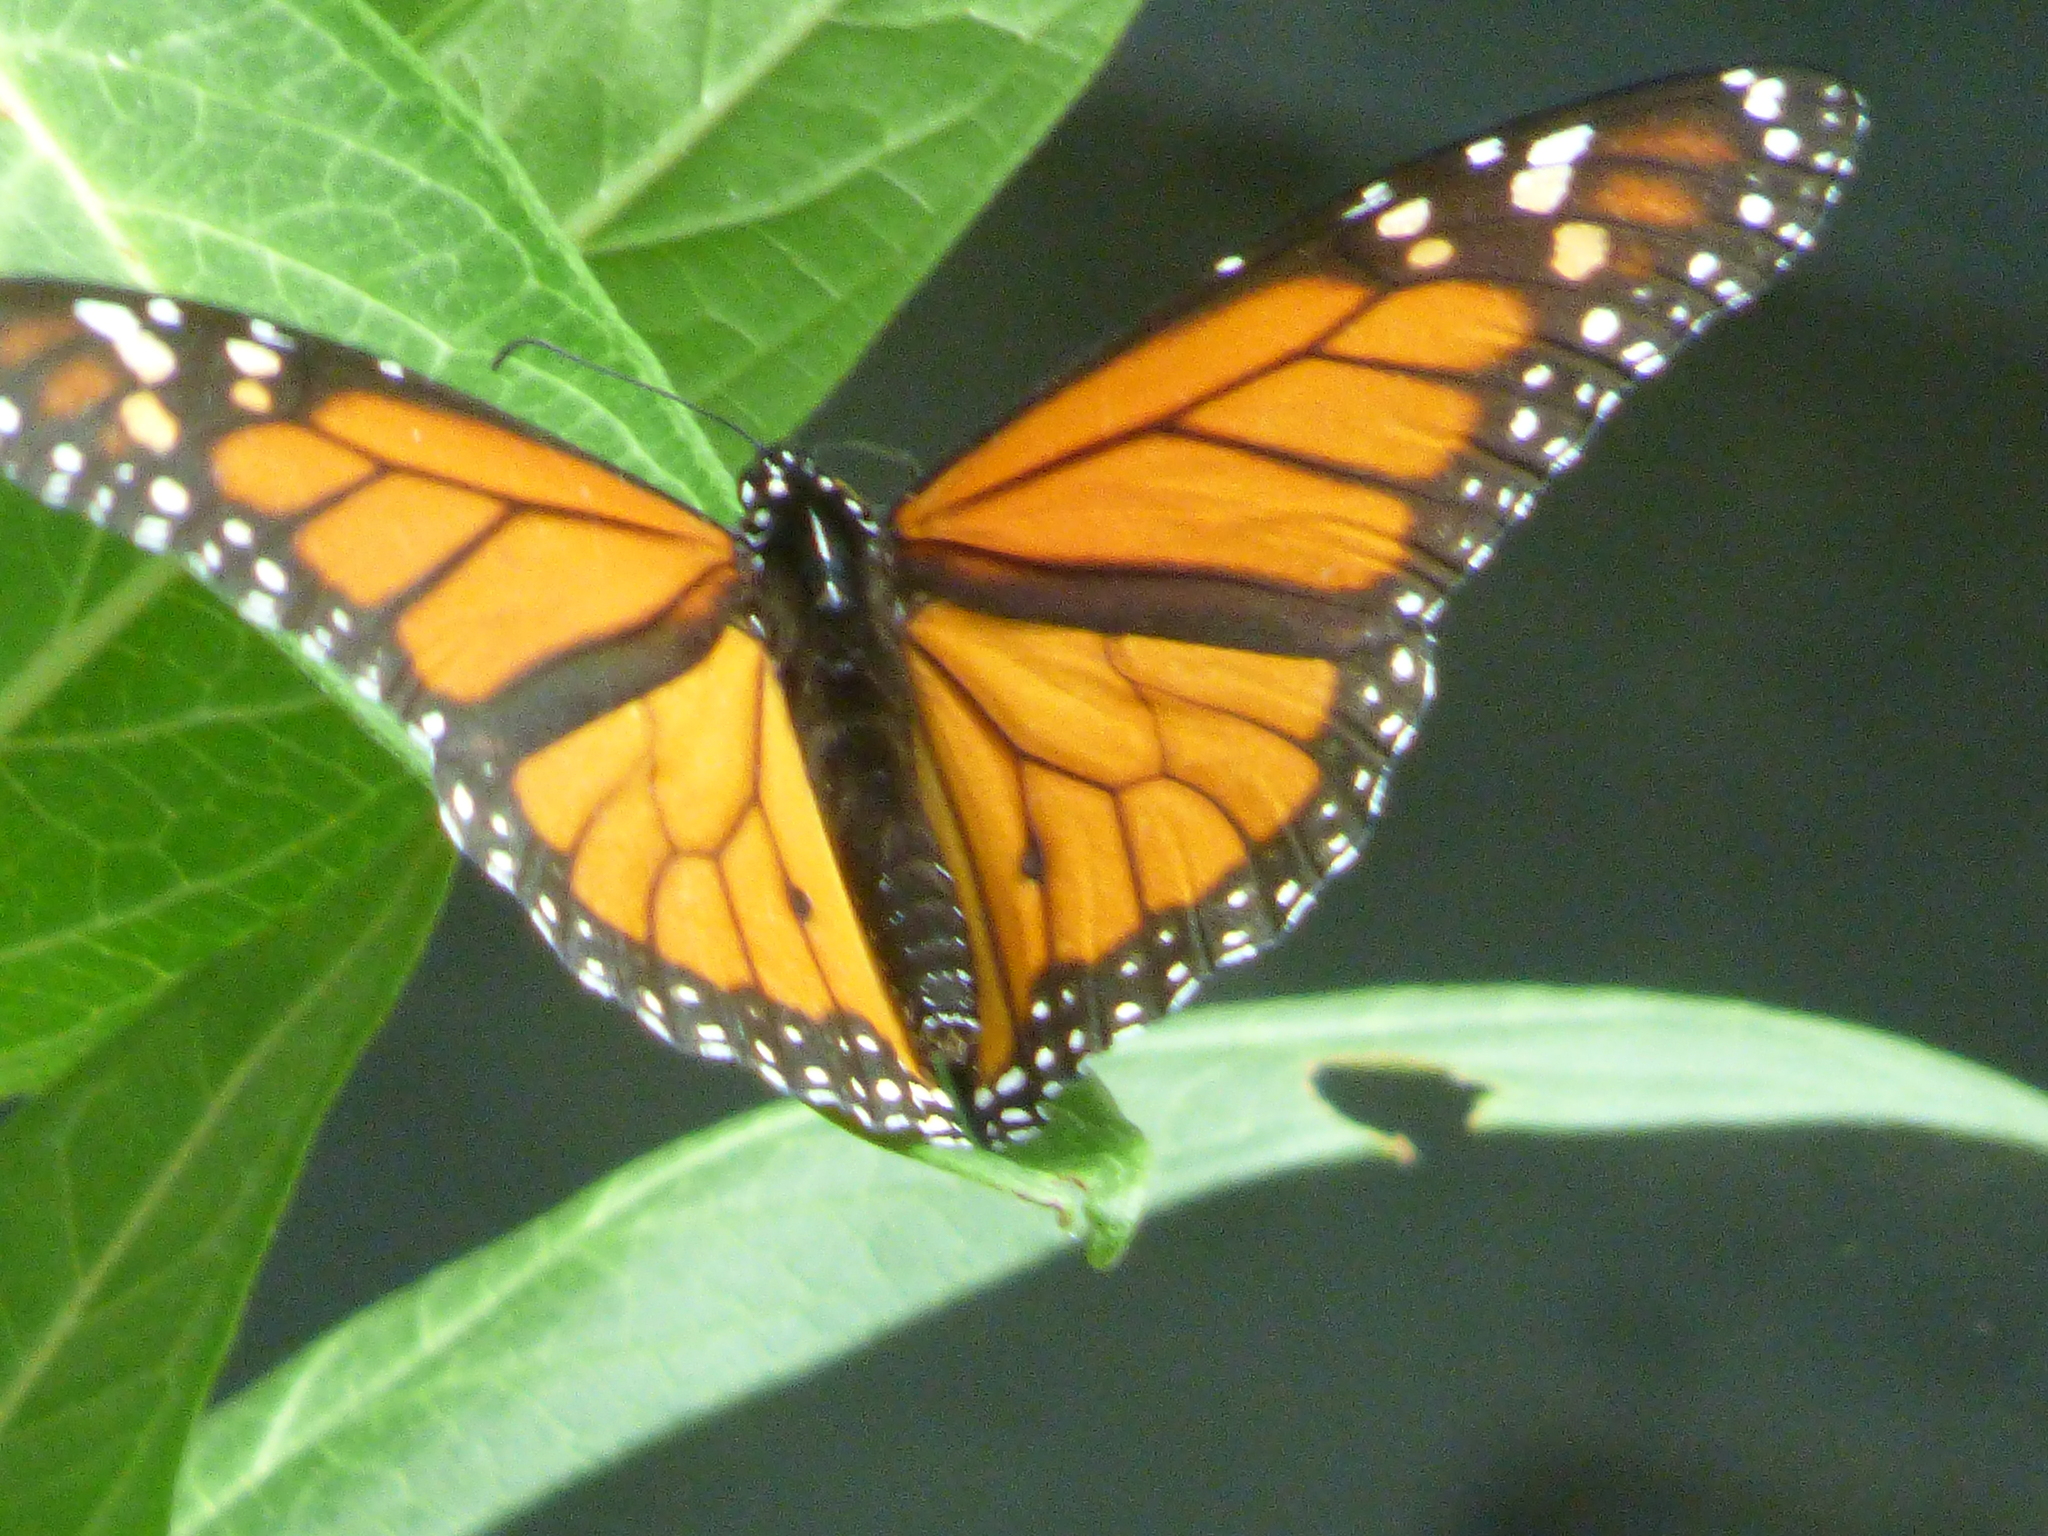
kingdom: Animalia
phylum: Arthropoda
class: Insecta
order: Lepidoptera
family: Nymphalidae
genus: Danaus
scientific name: Danaus plexippus
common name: Monarch
